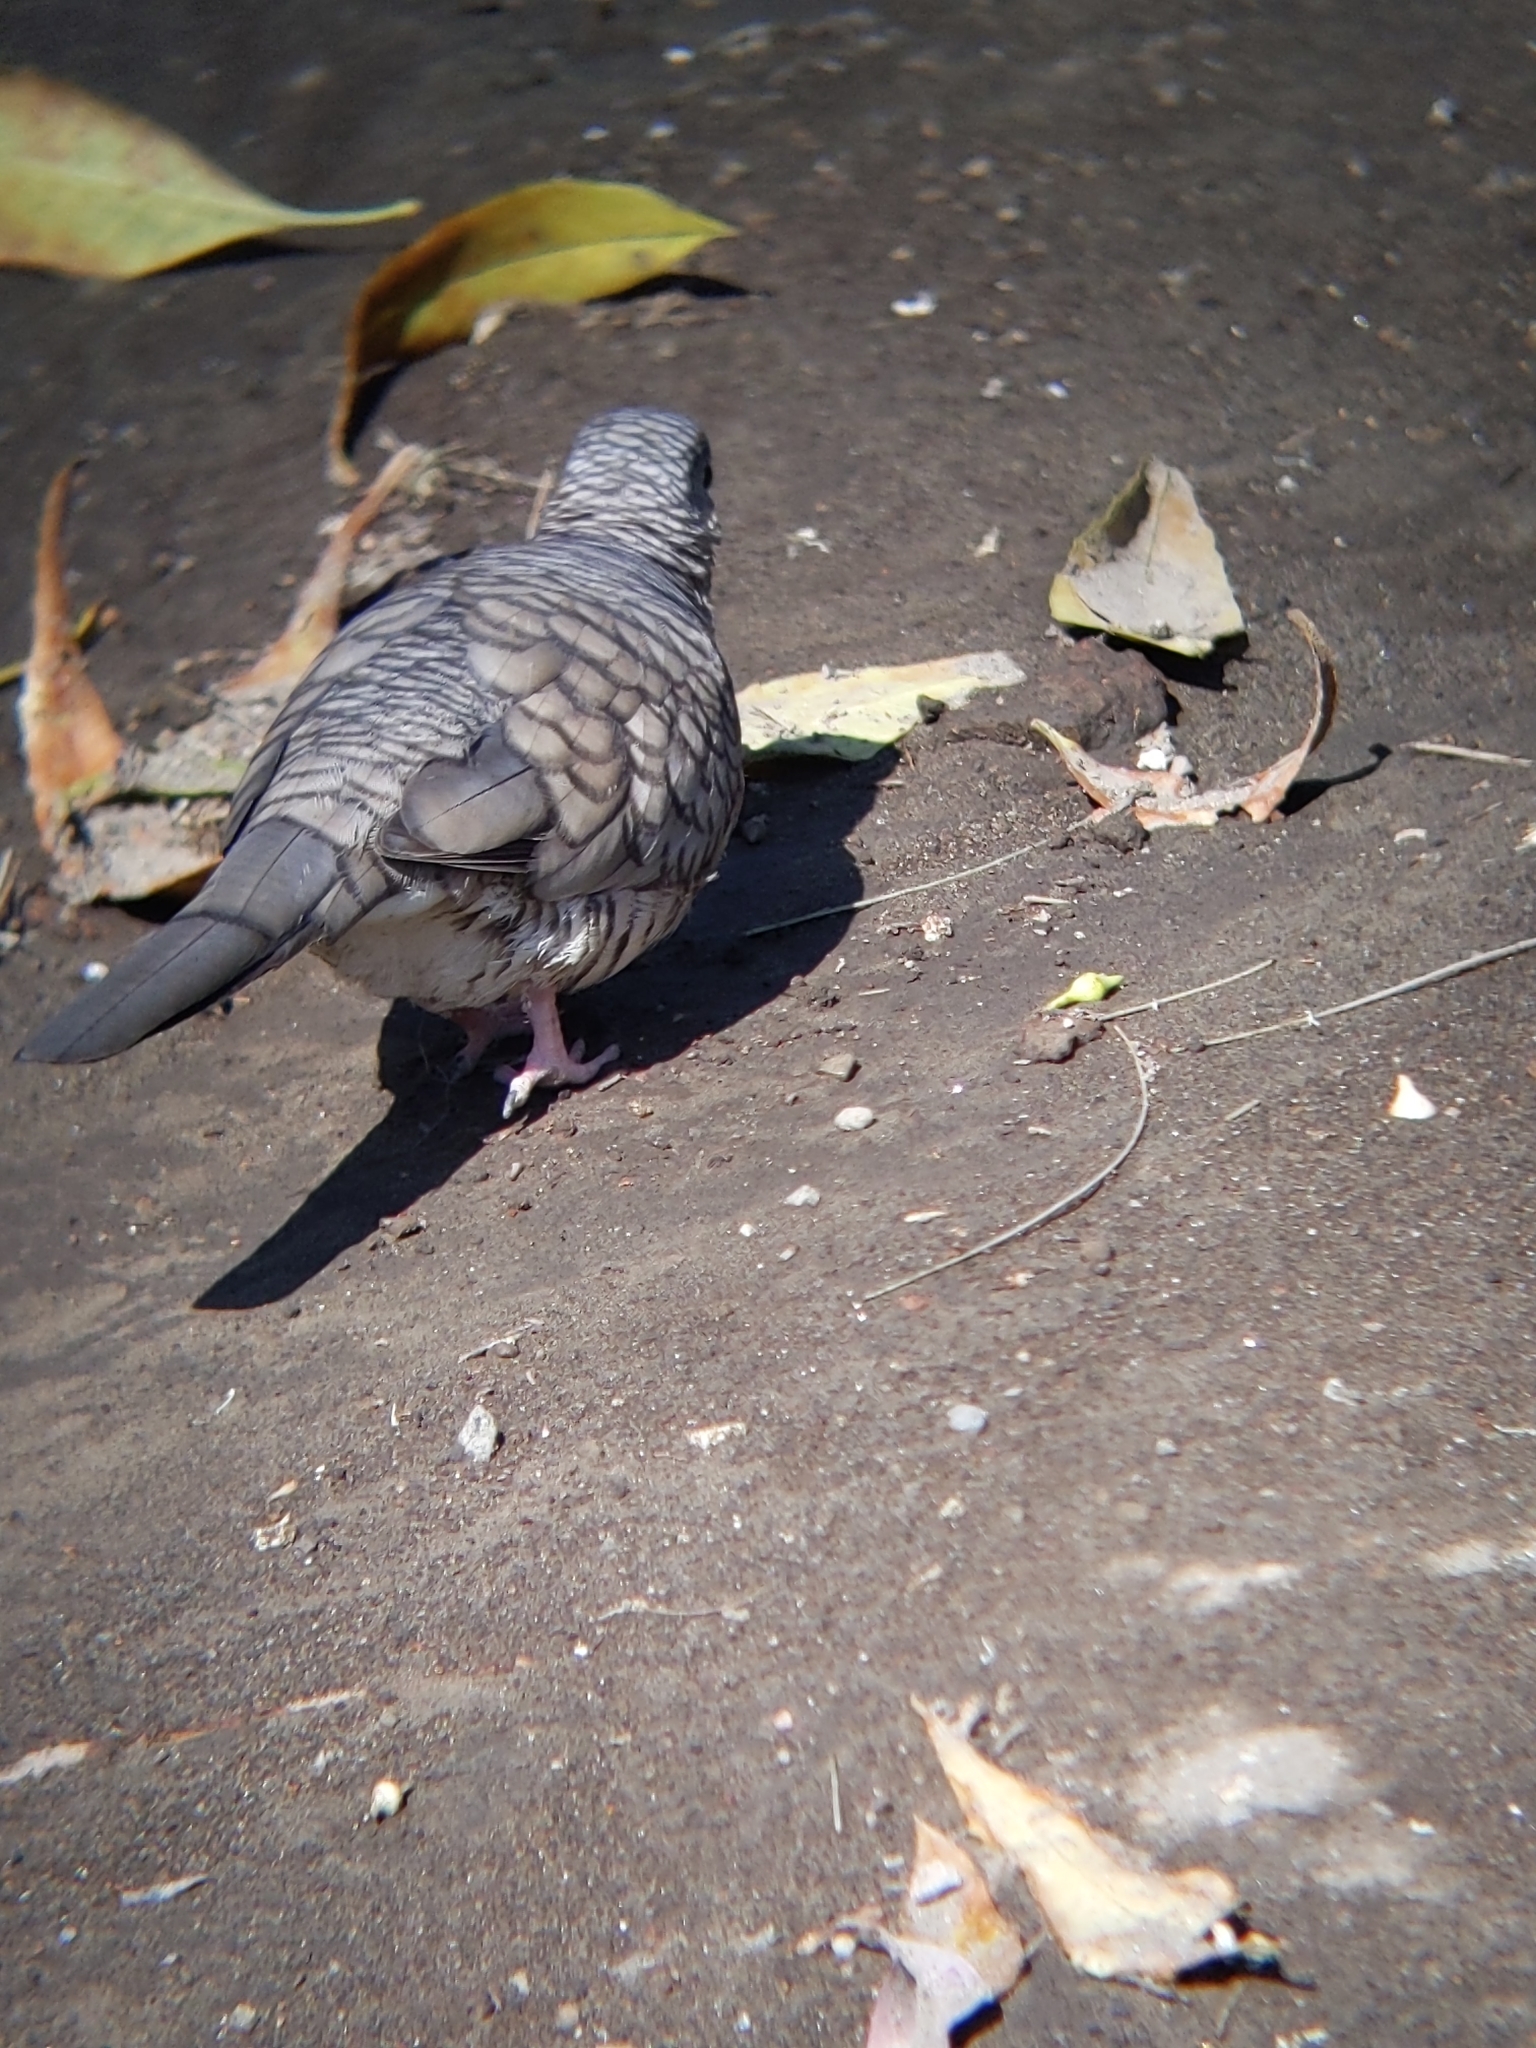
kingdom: Animalia
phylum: Chordata
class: Aves
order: Columbiformes
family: Columbidae
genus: Columbina
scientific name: Columbina inca
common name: Inca dove
